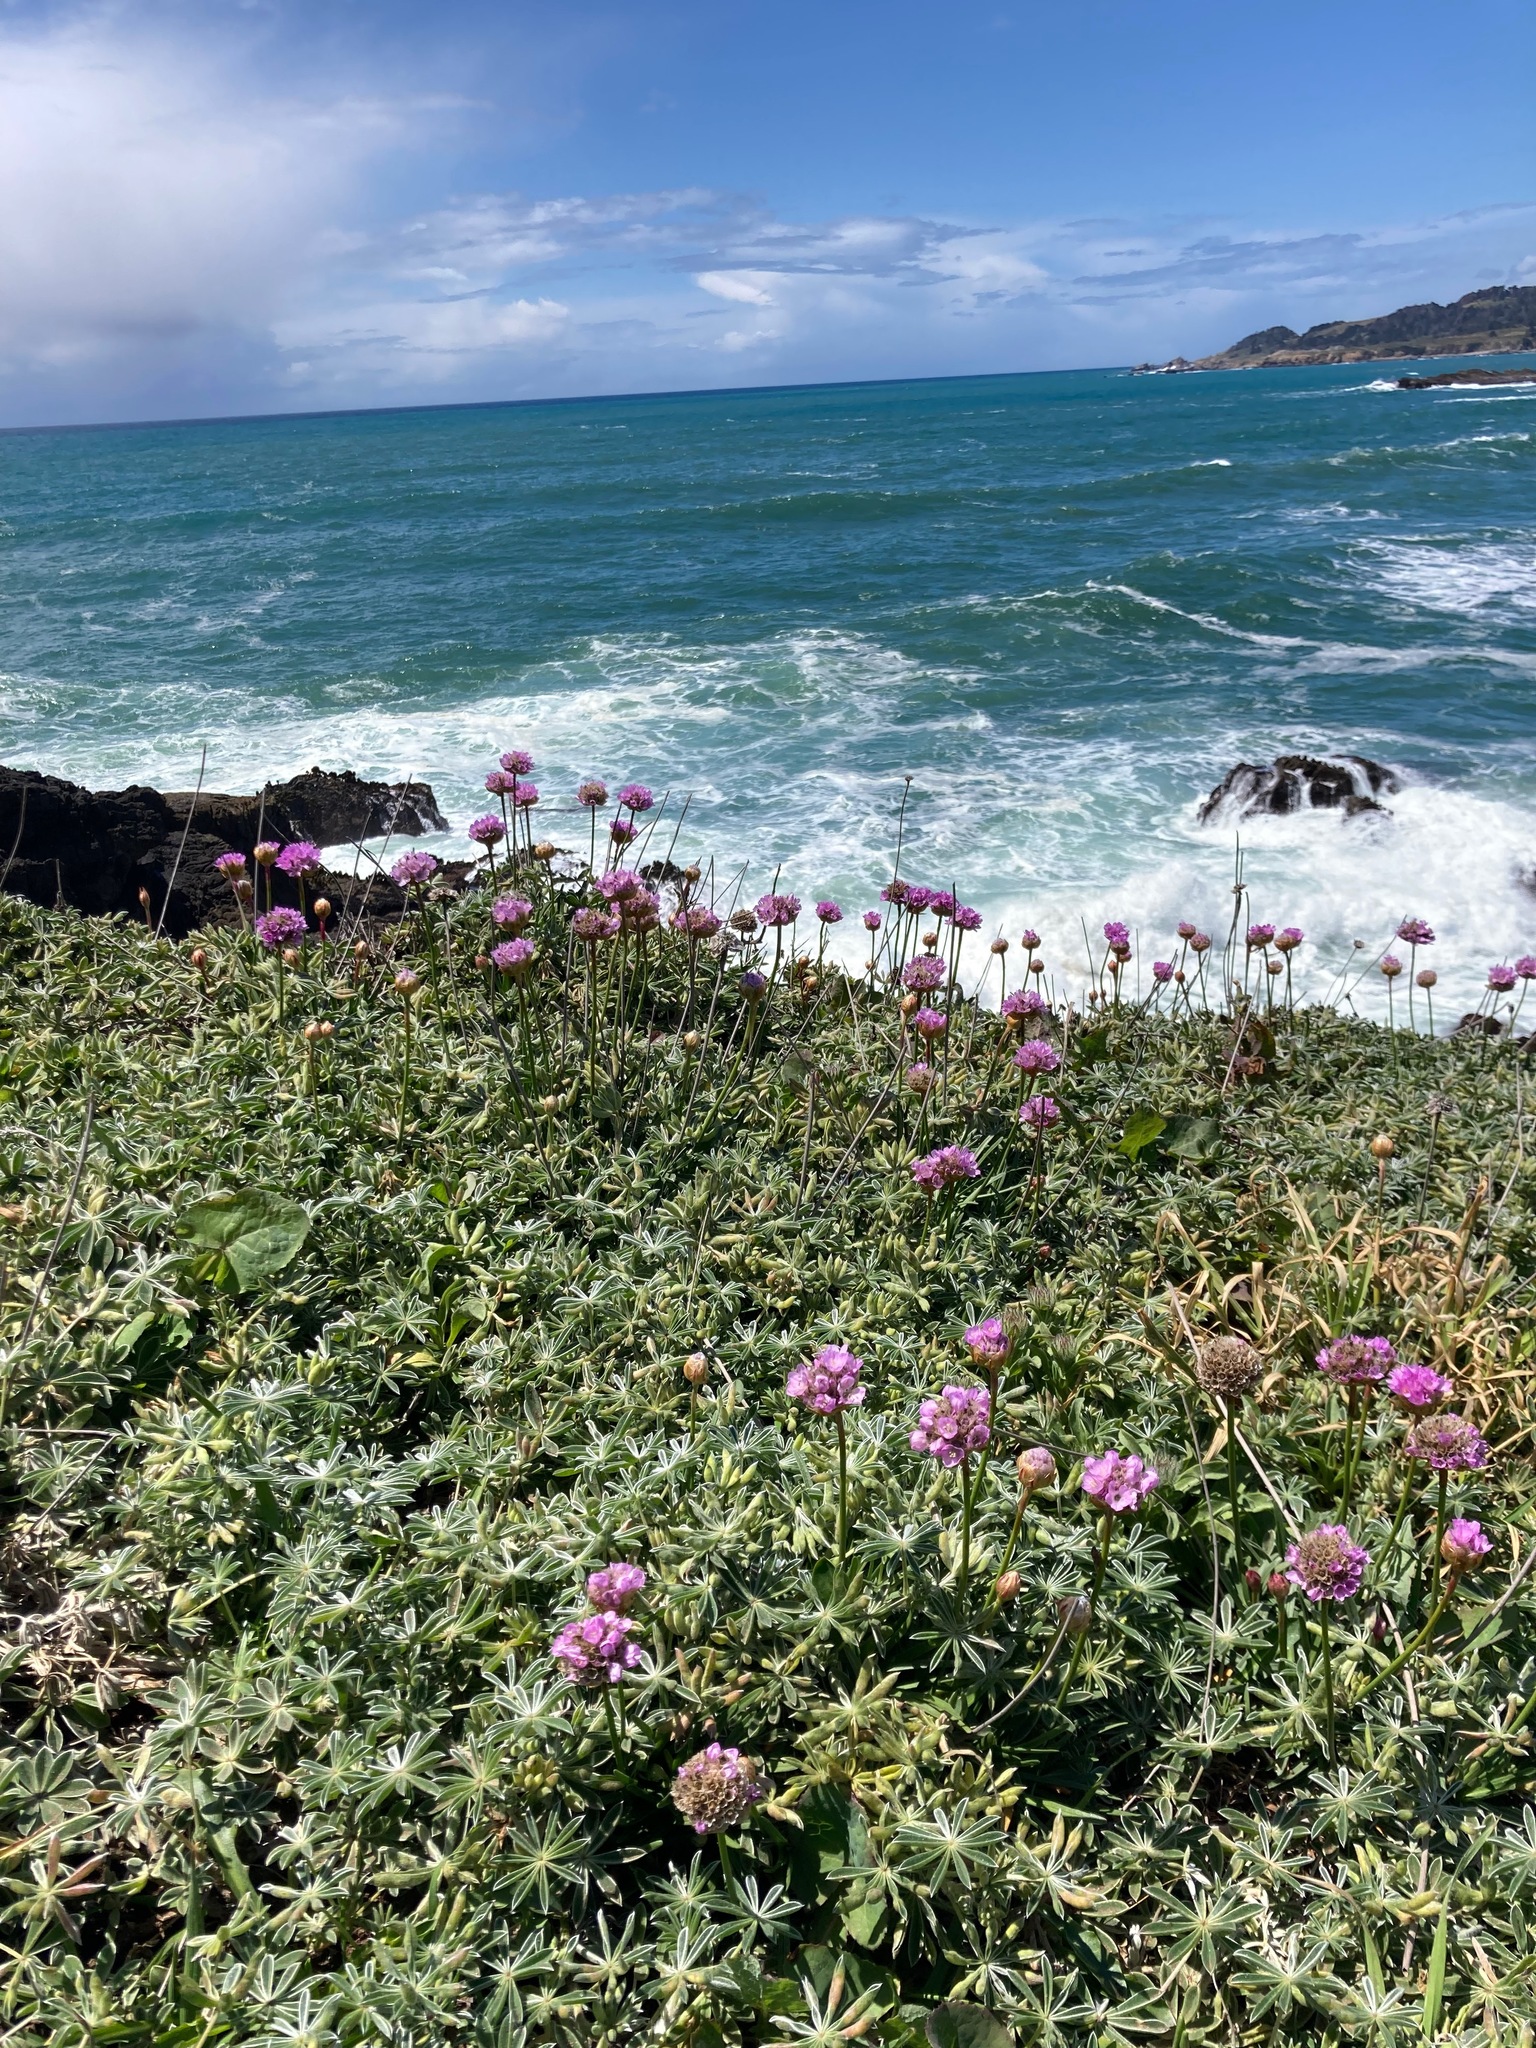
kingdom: Plantae
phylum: Tracheophyta
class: Magnoliopsida
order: Caryophyllales
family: Plumbaginaceae
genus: Armeria
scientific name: Armeria maritima
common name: Thrift
